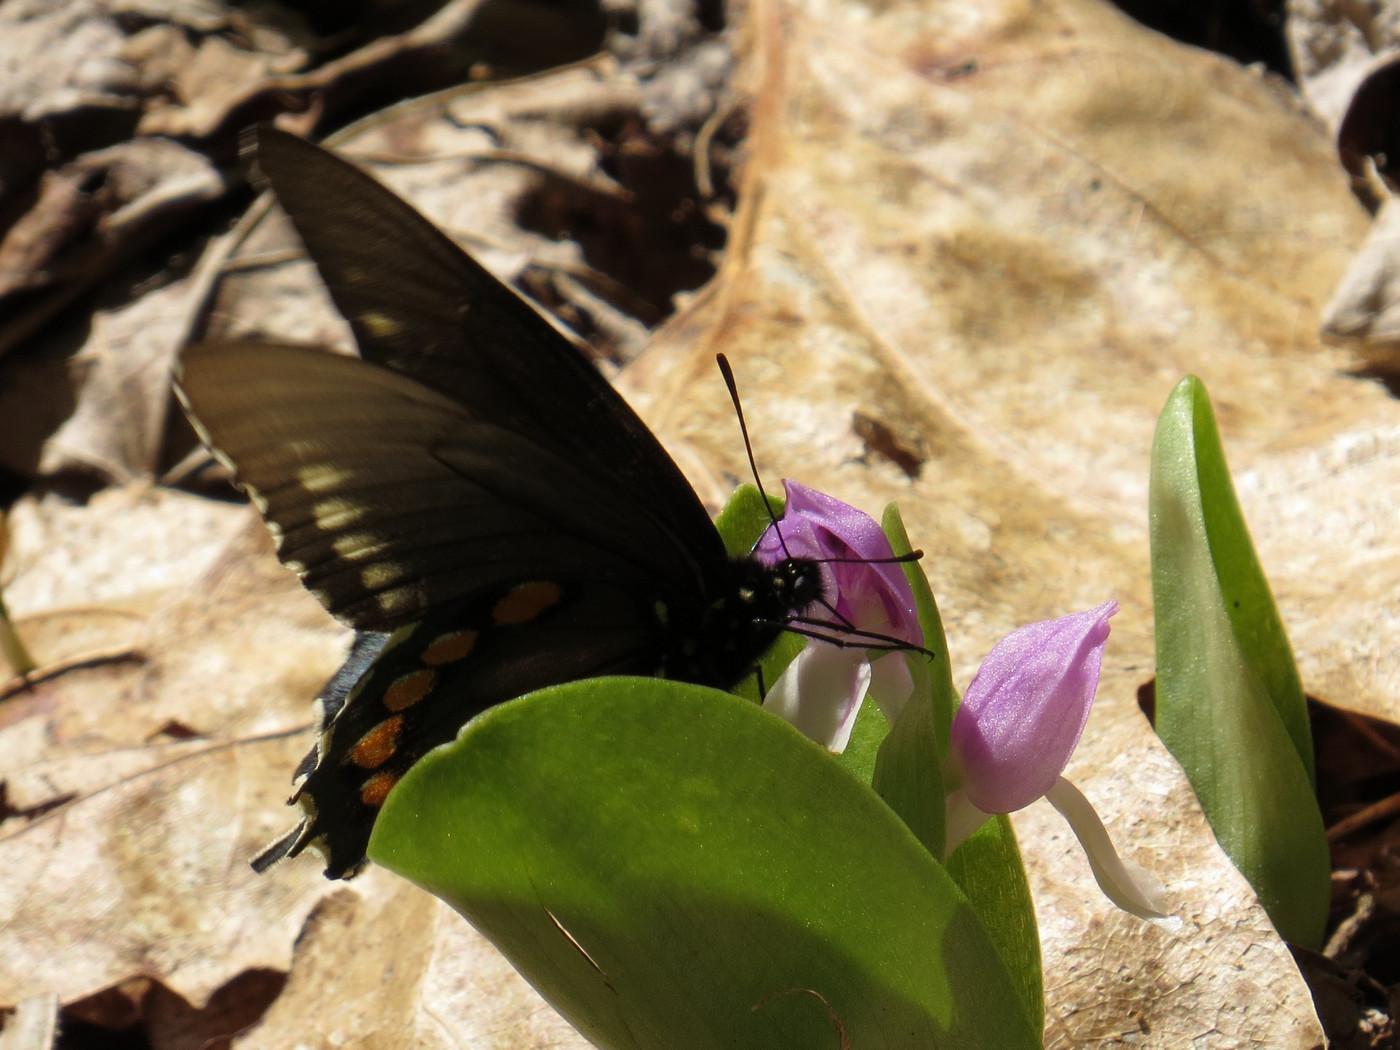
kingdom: Animalia
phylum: Arthropoda
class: Insecta
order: Lepidoptera
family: Papilionidae
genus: Battus
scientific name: Battus philenor
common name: Pipevine swallowtail
